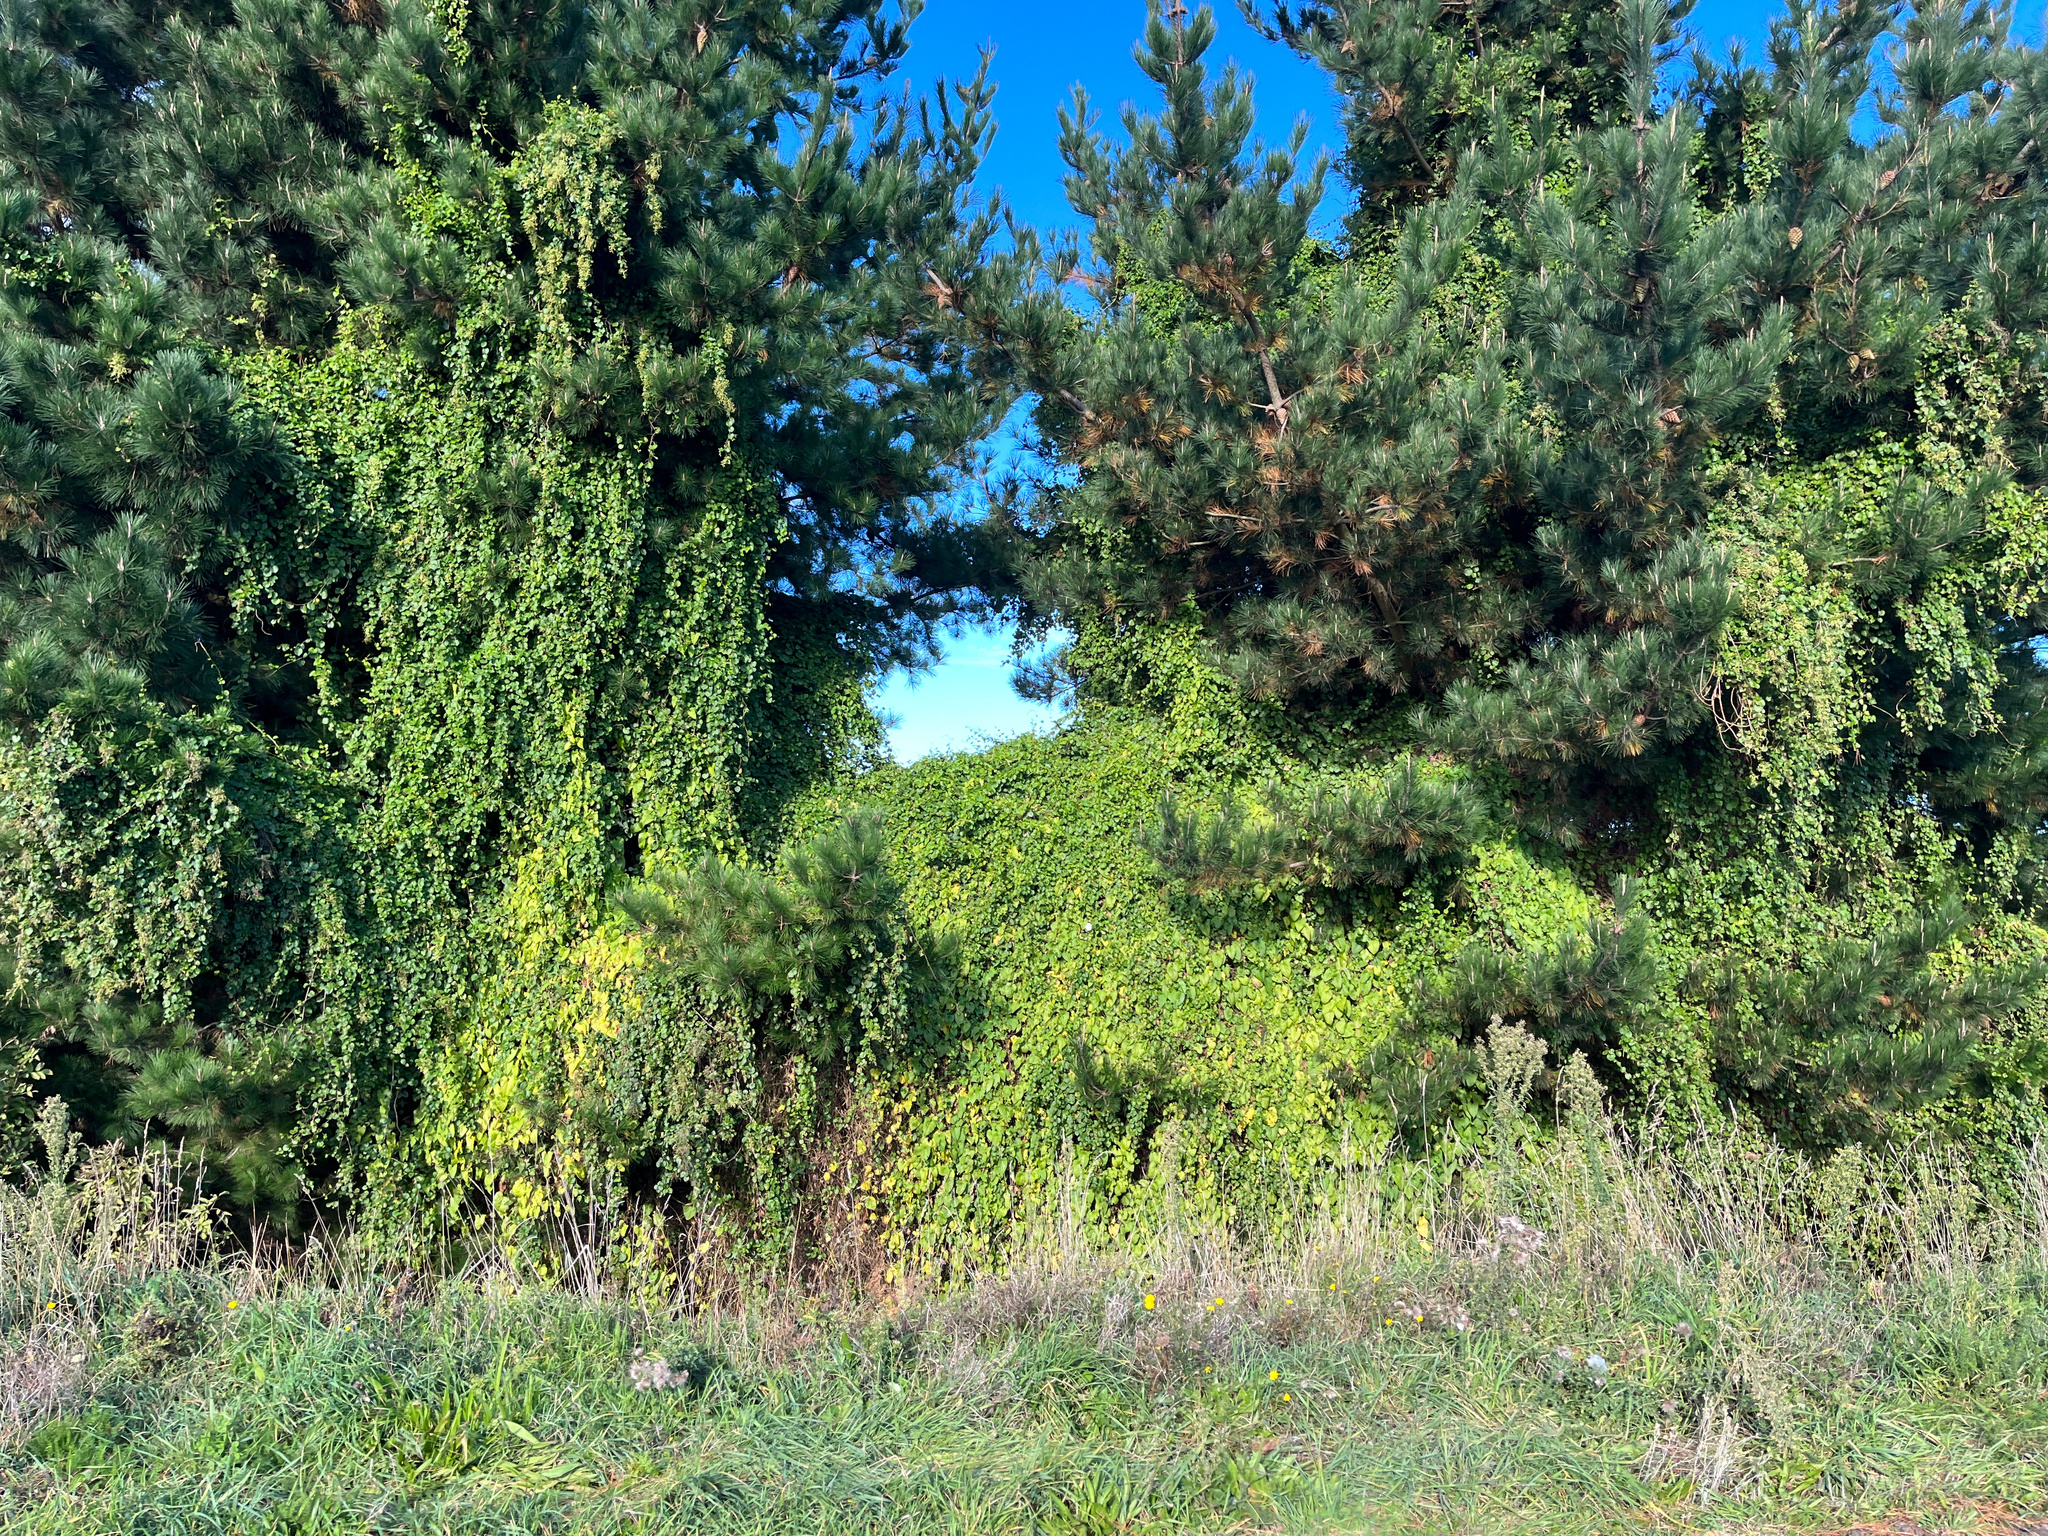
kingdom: Plantae
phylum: Tracheophyta
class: Magnoliopsida
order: Caryophyllales
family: Polygonaceae
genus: Muehlenbeckia
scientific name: Muehlenbeckia australis
